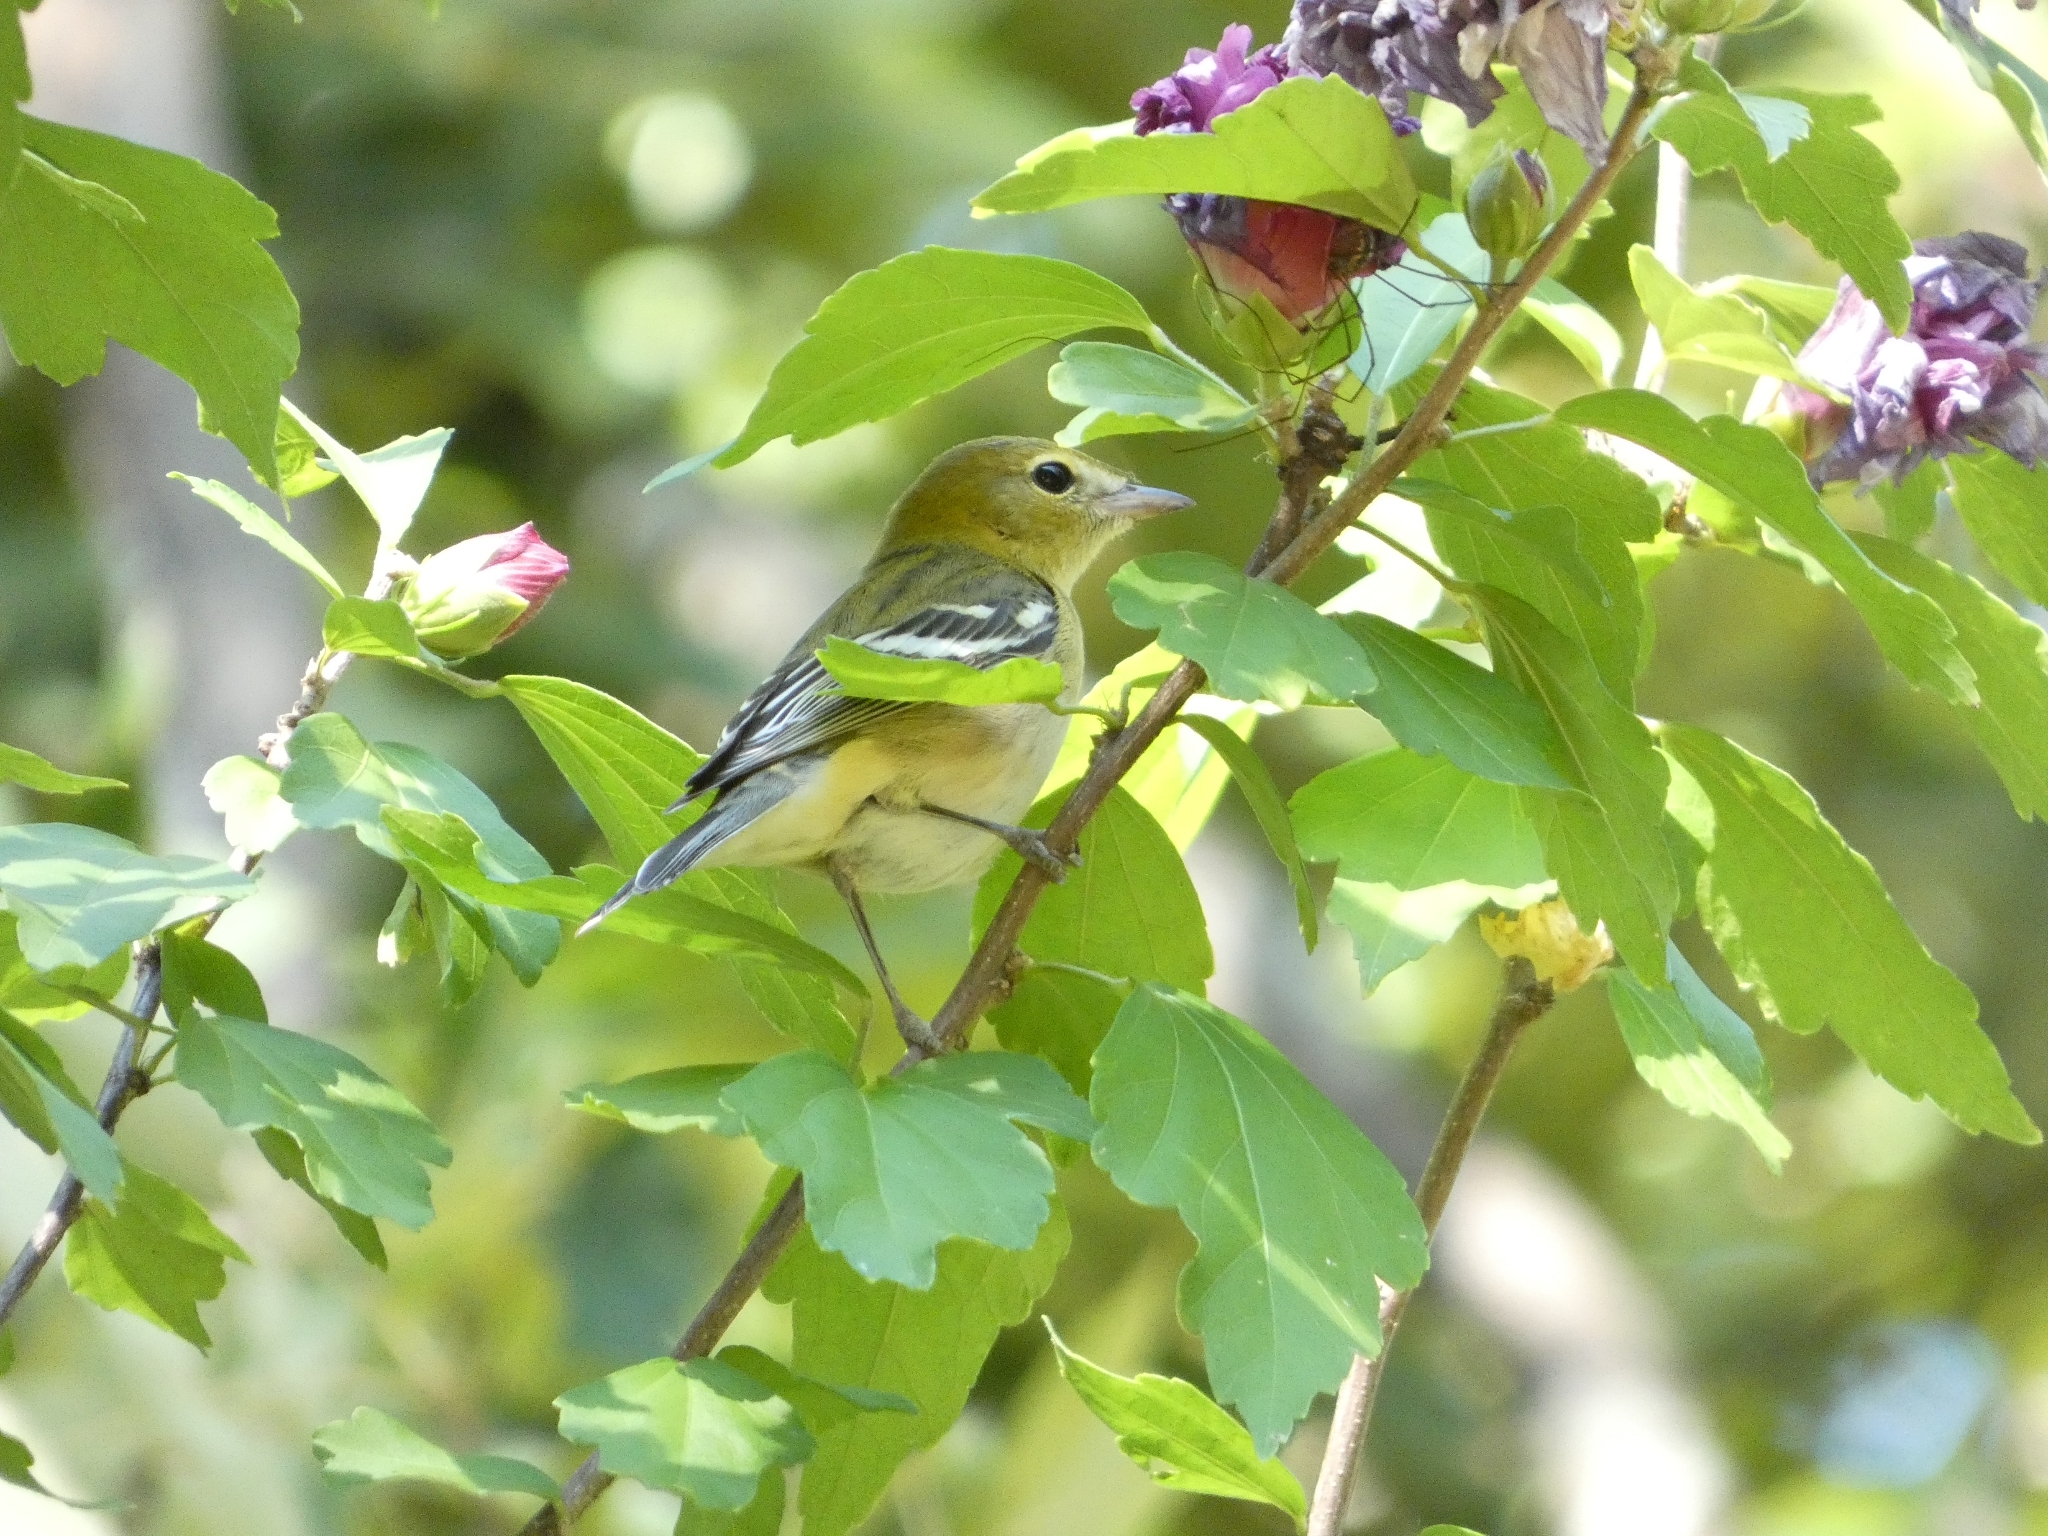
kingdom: Animalia
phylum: Chordata
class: Aves
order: Passeriformes
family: Parulidae
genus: Setophaga
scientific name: Setophaga castanea
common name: Bay-breasted warbler
